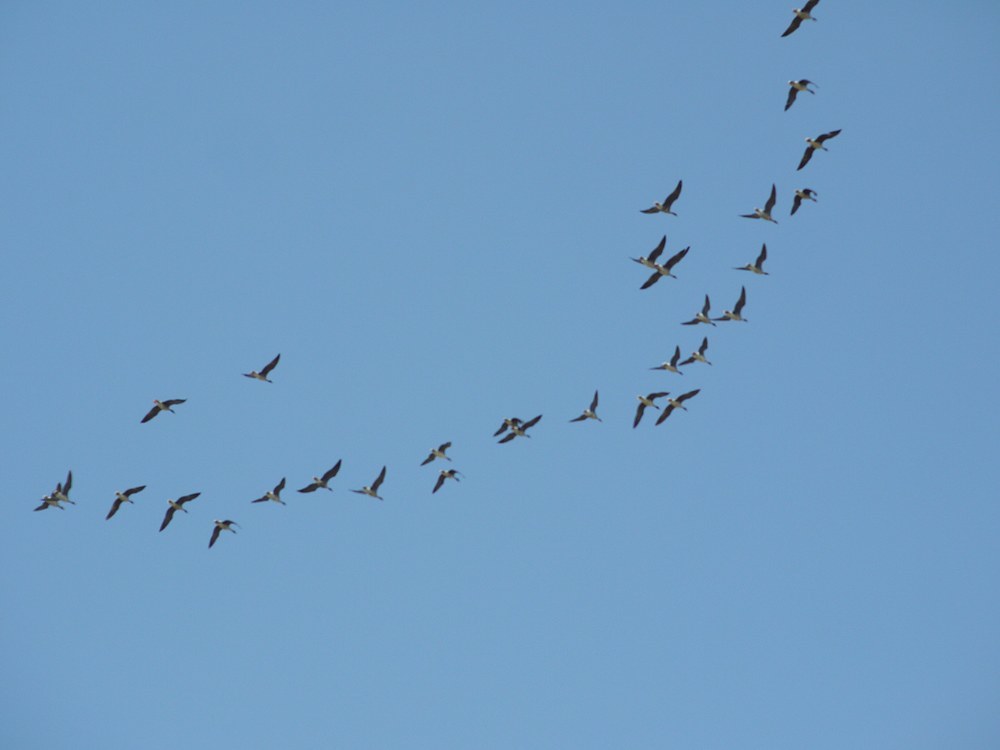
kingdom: Animalia
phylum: Chordata
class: Aves
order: Anseriformes
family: Anatidae
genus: Anser
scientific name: Anser albifrons
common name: Greater white-fronted goose
